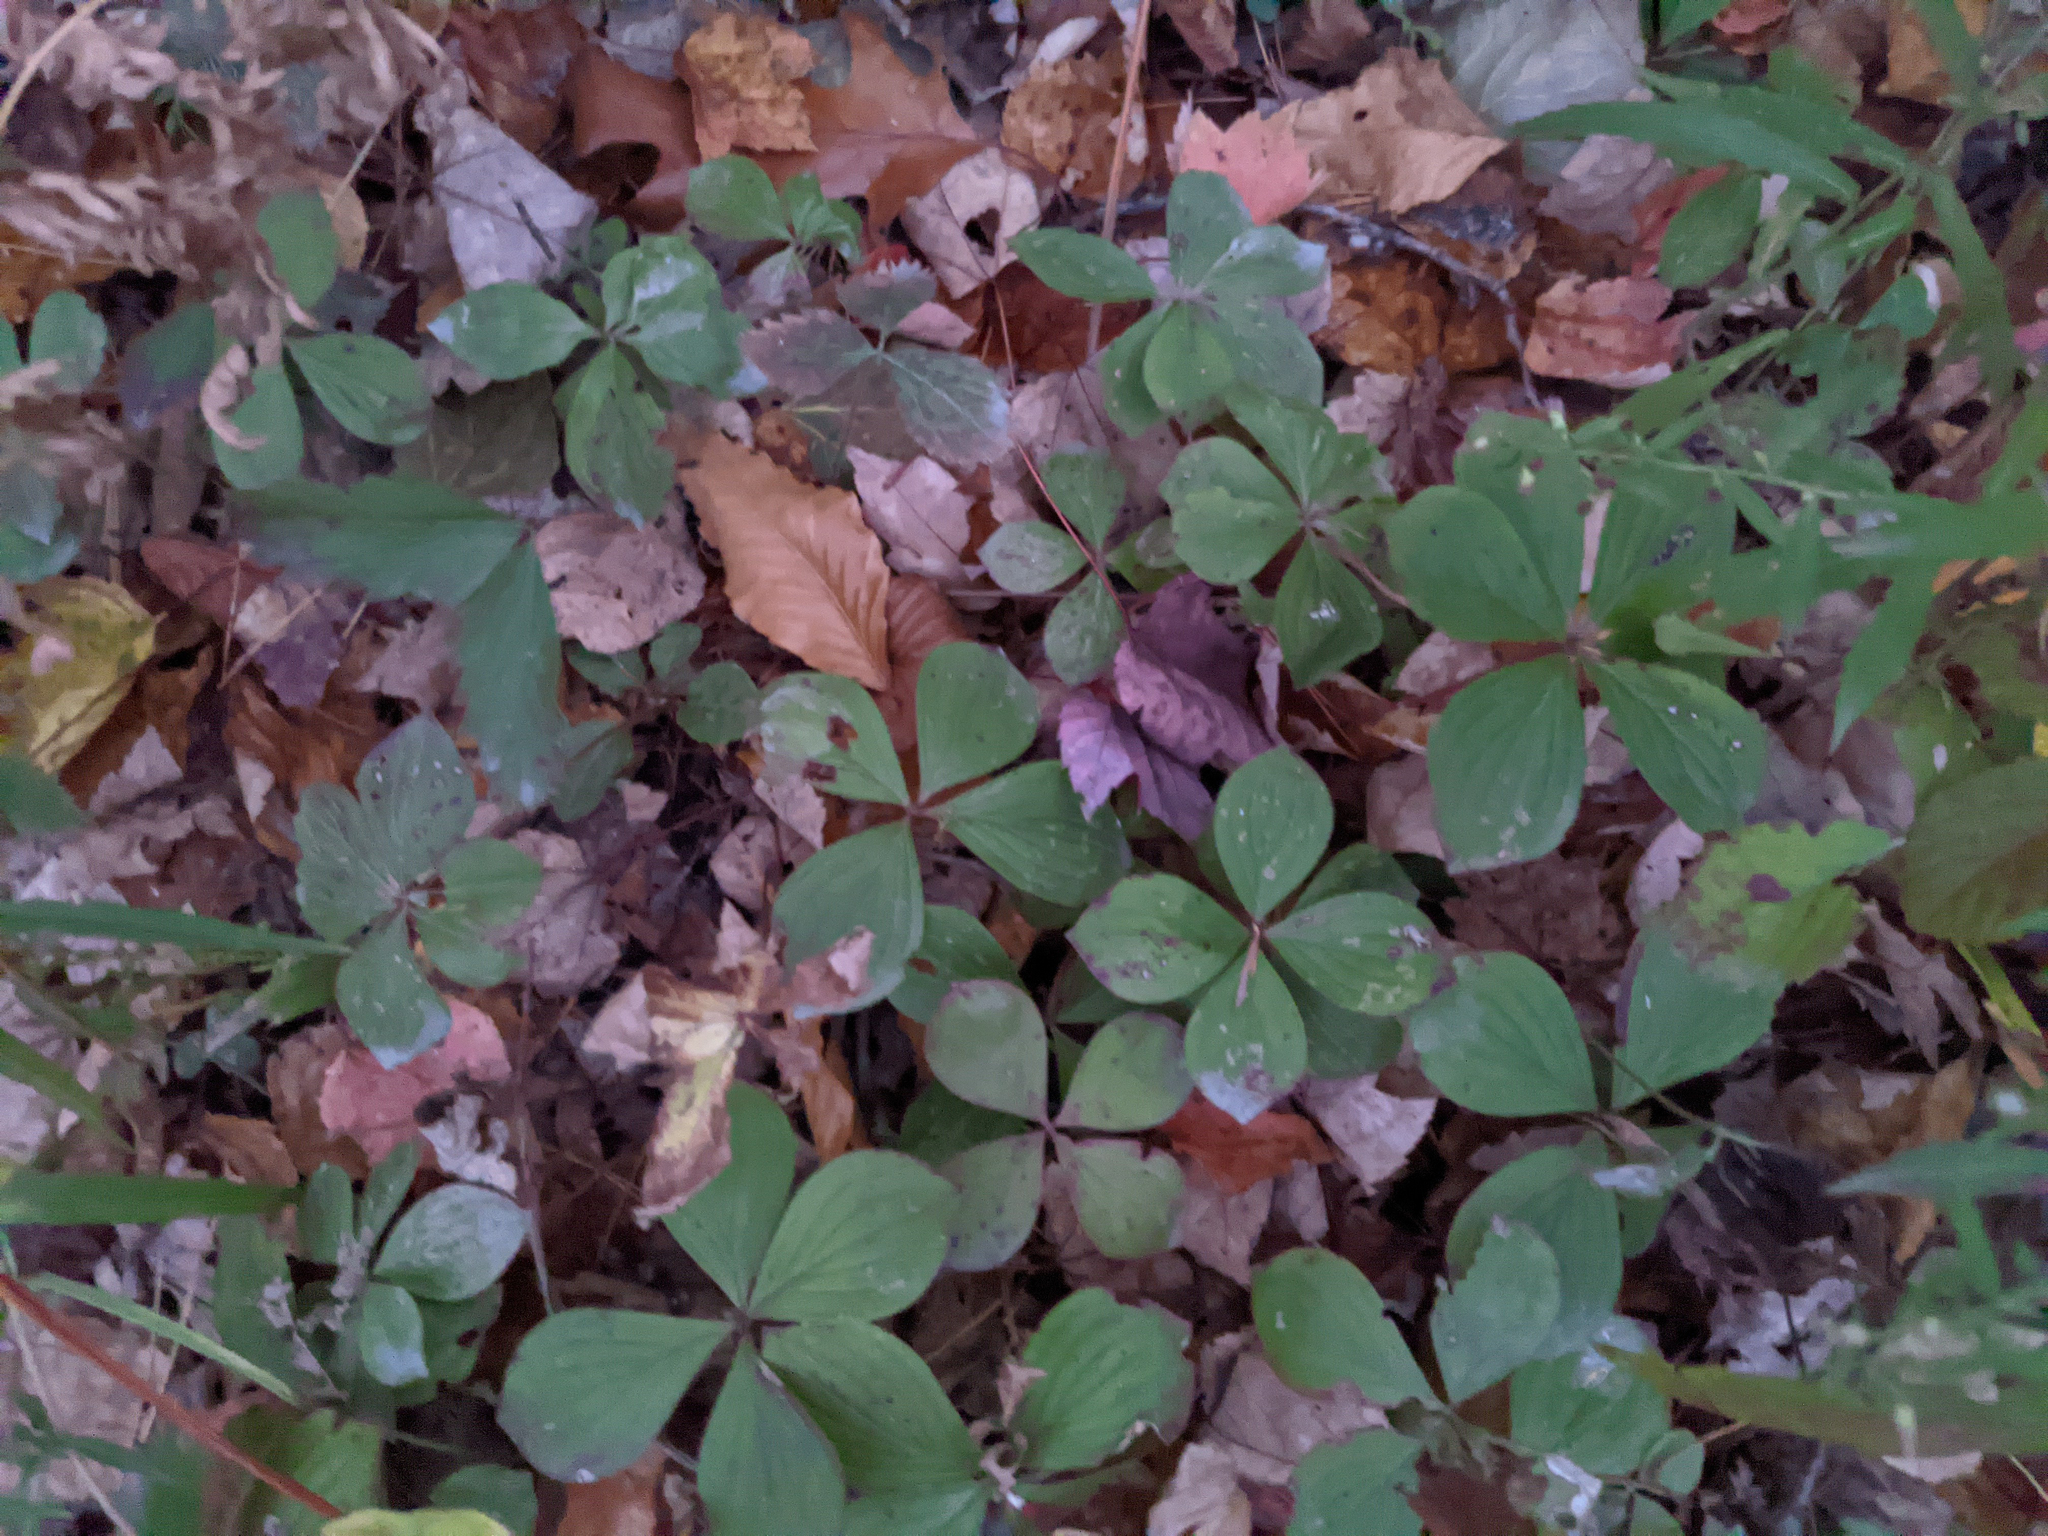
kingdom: Plantae
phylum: Tracheophyta
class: Magnoliopsida
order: Cornales
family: Cornaceae
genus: Cornus
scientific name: Cornus canadensis
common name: Creeping dogwood
